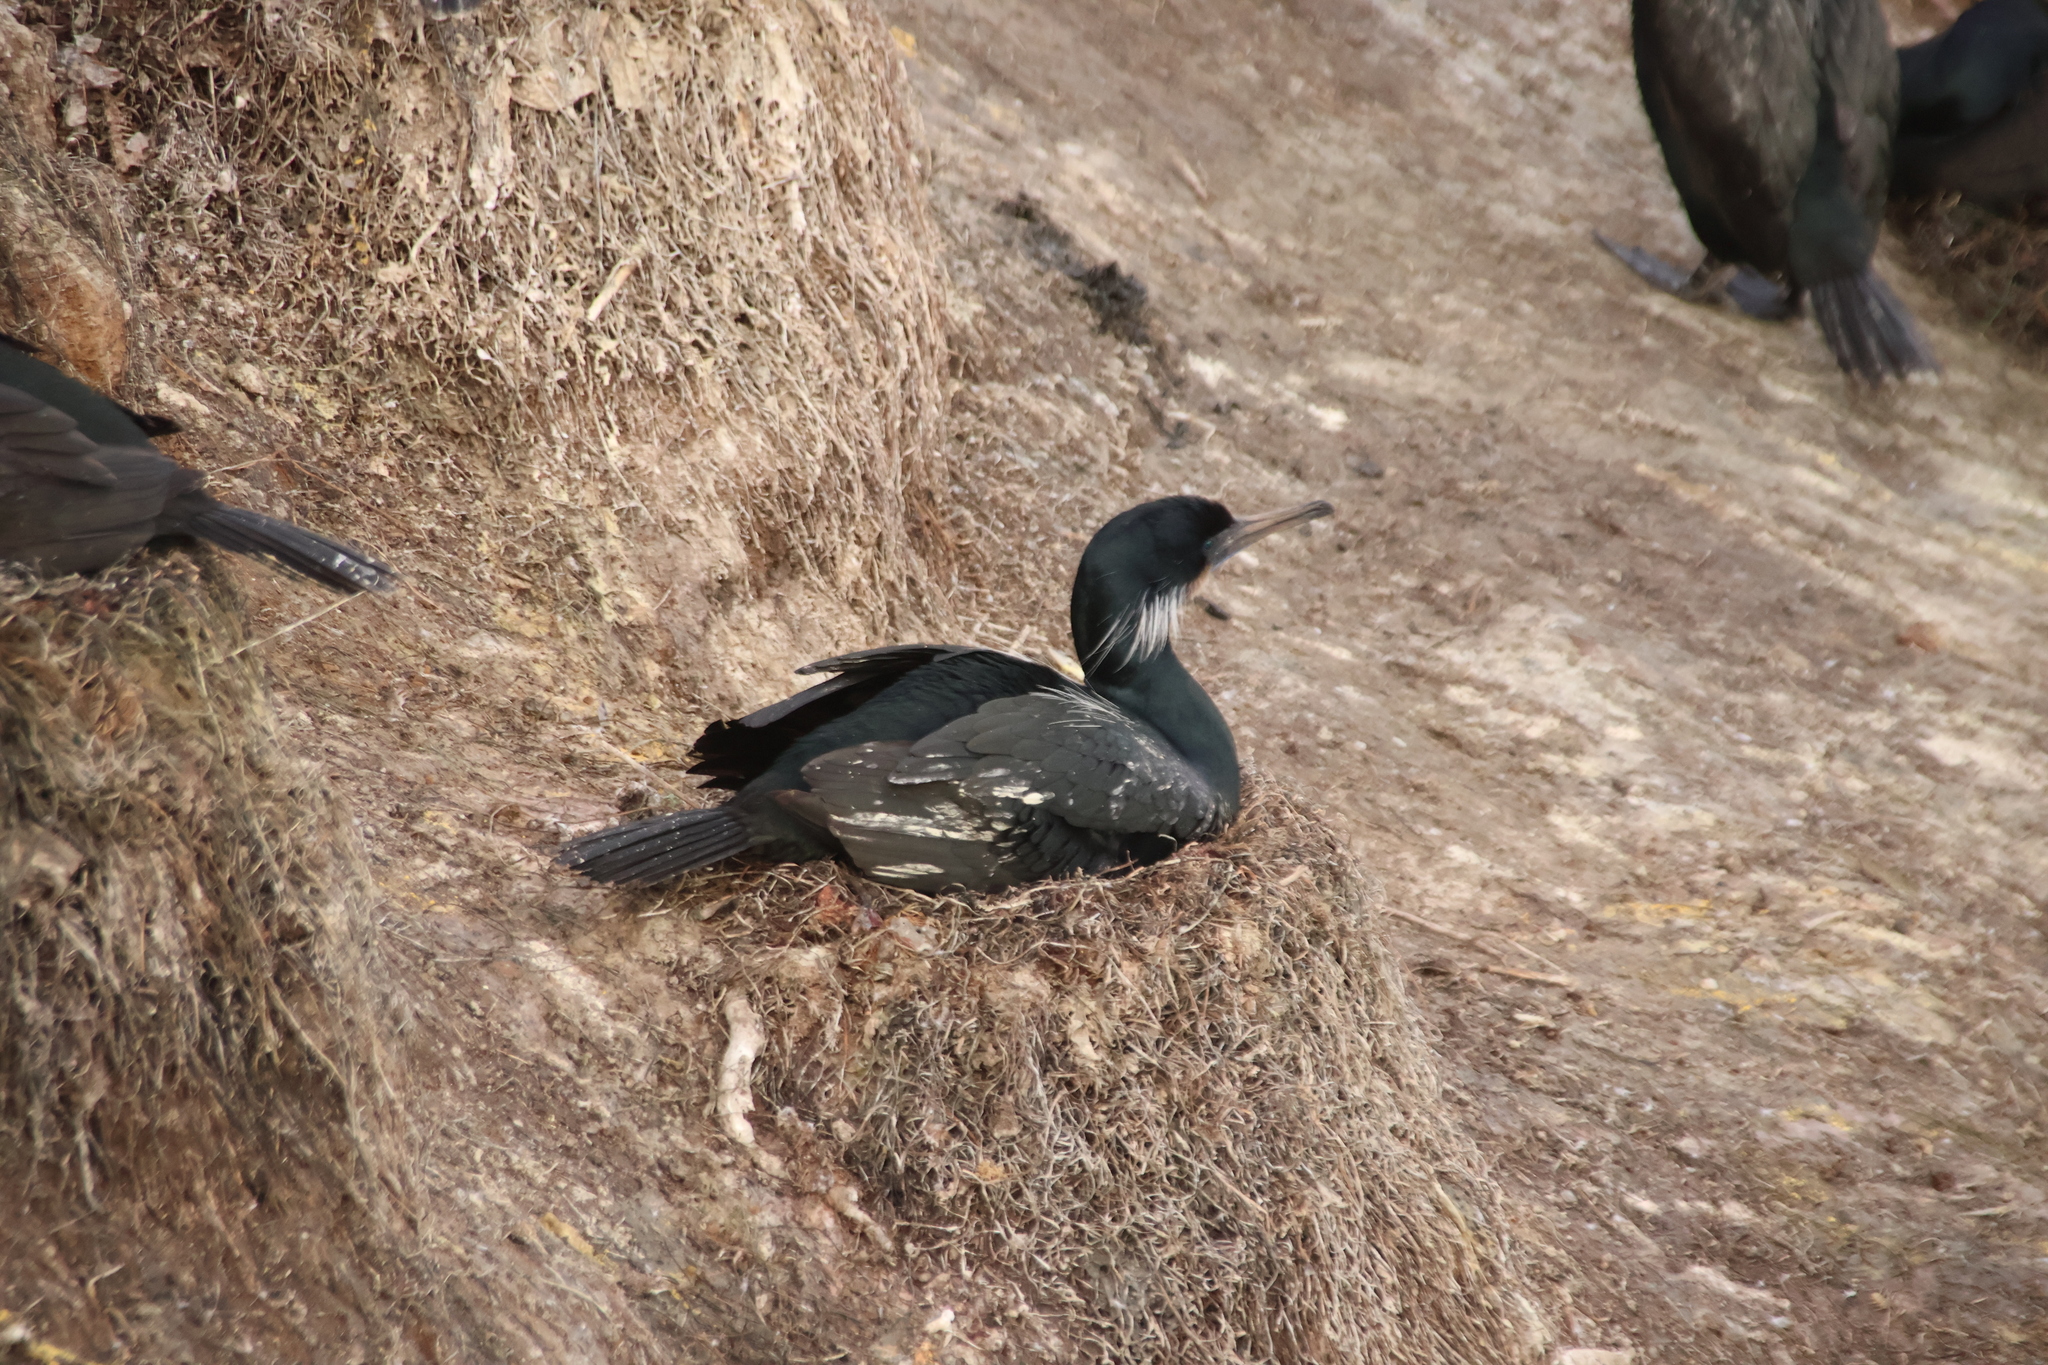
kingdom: Animalia
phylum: Chordata
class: Aves
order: Suliformes
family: Phalacrocoracidae
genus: Urile
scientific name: Urile penicillatus
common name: Brandt's cormorant
